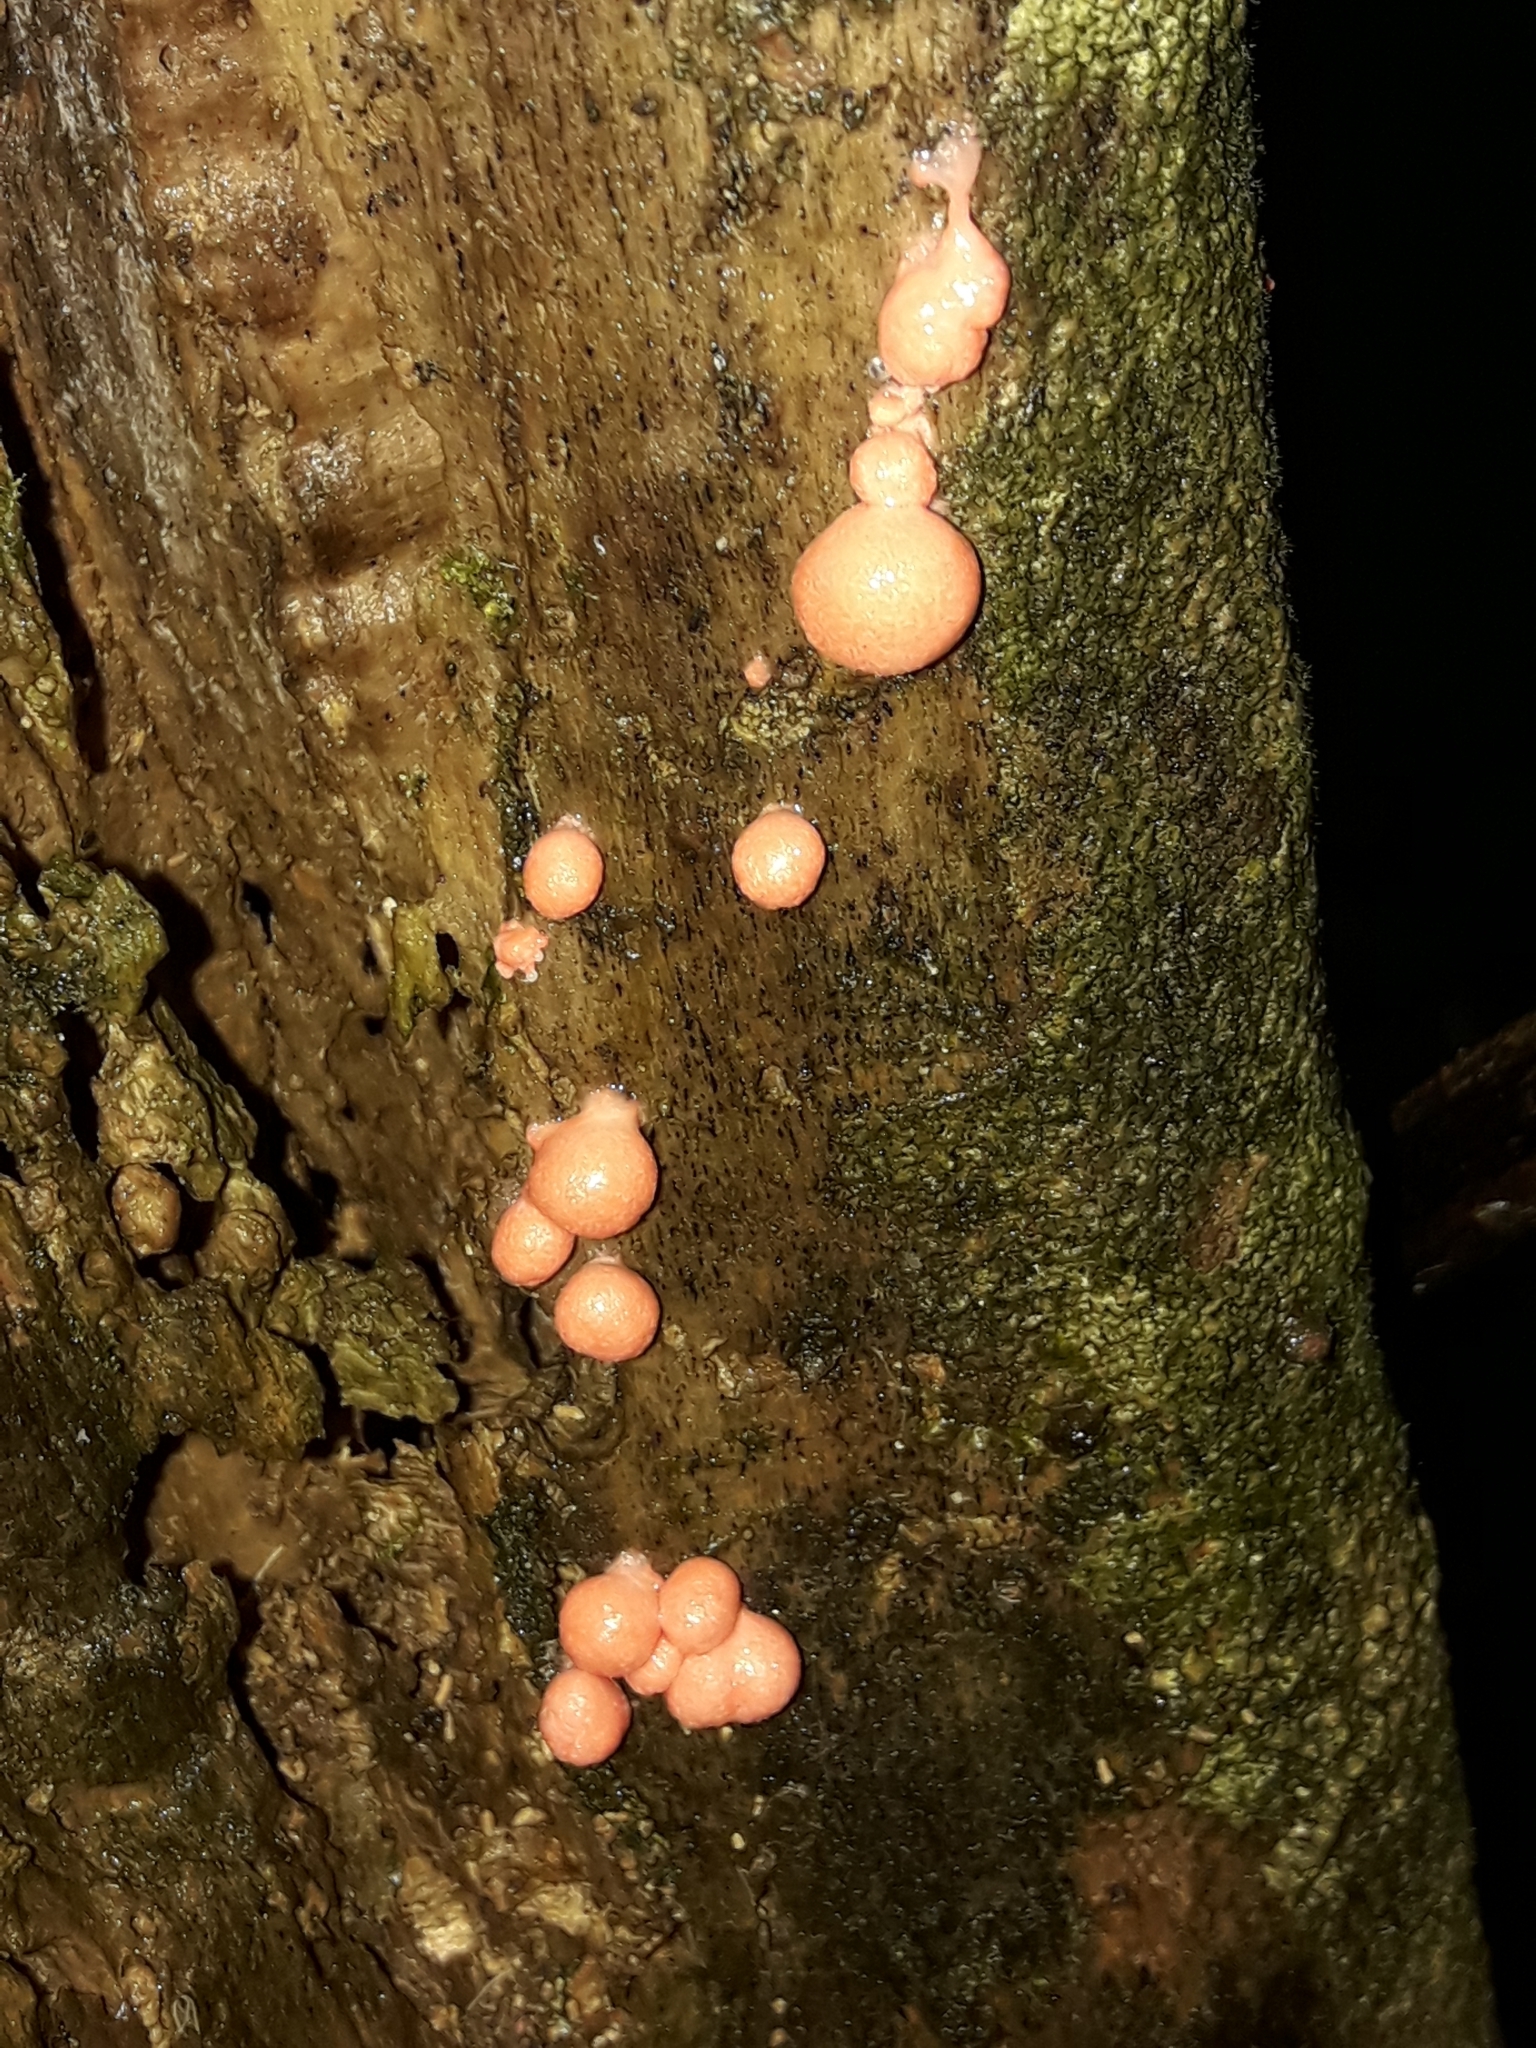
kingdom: Protozoa
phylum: Mycetozoa
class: Myxomycetes
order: Cribrariales
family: Tubiferaceae
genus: Lycogala
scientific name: Lycogala epidendrum
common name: Wolf's milk
